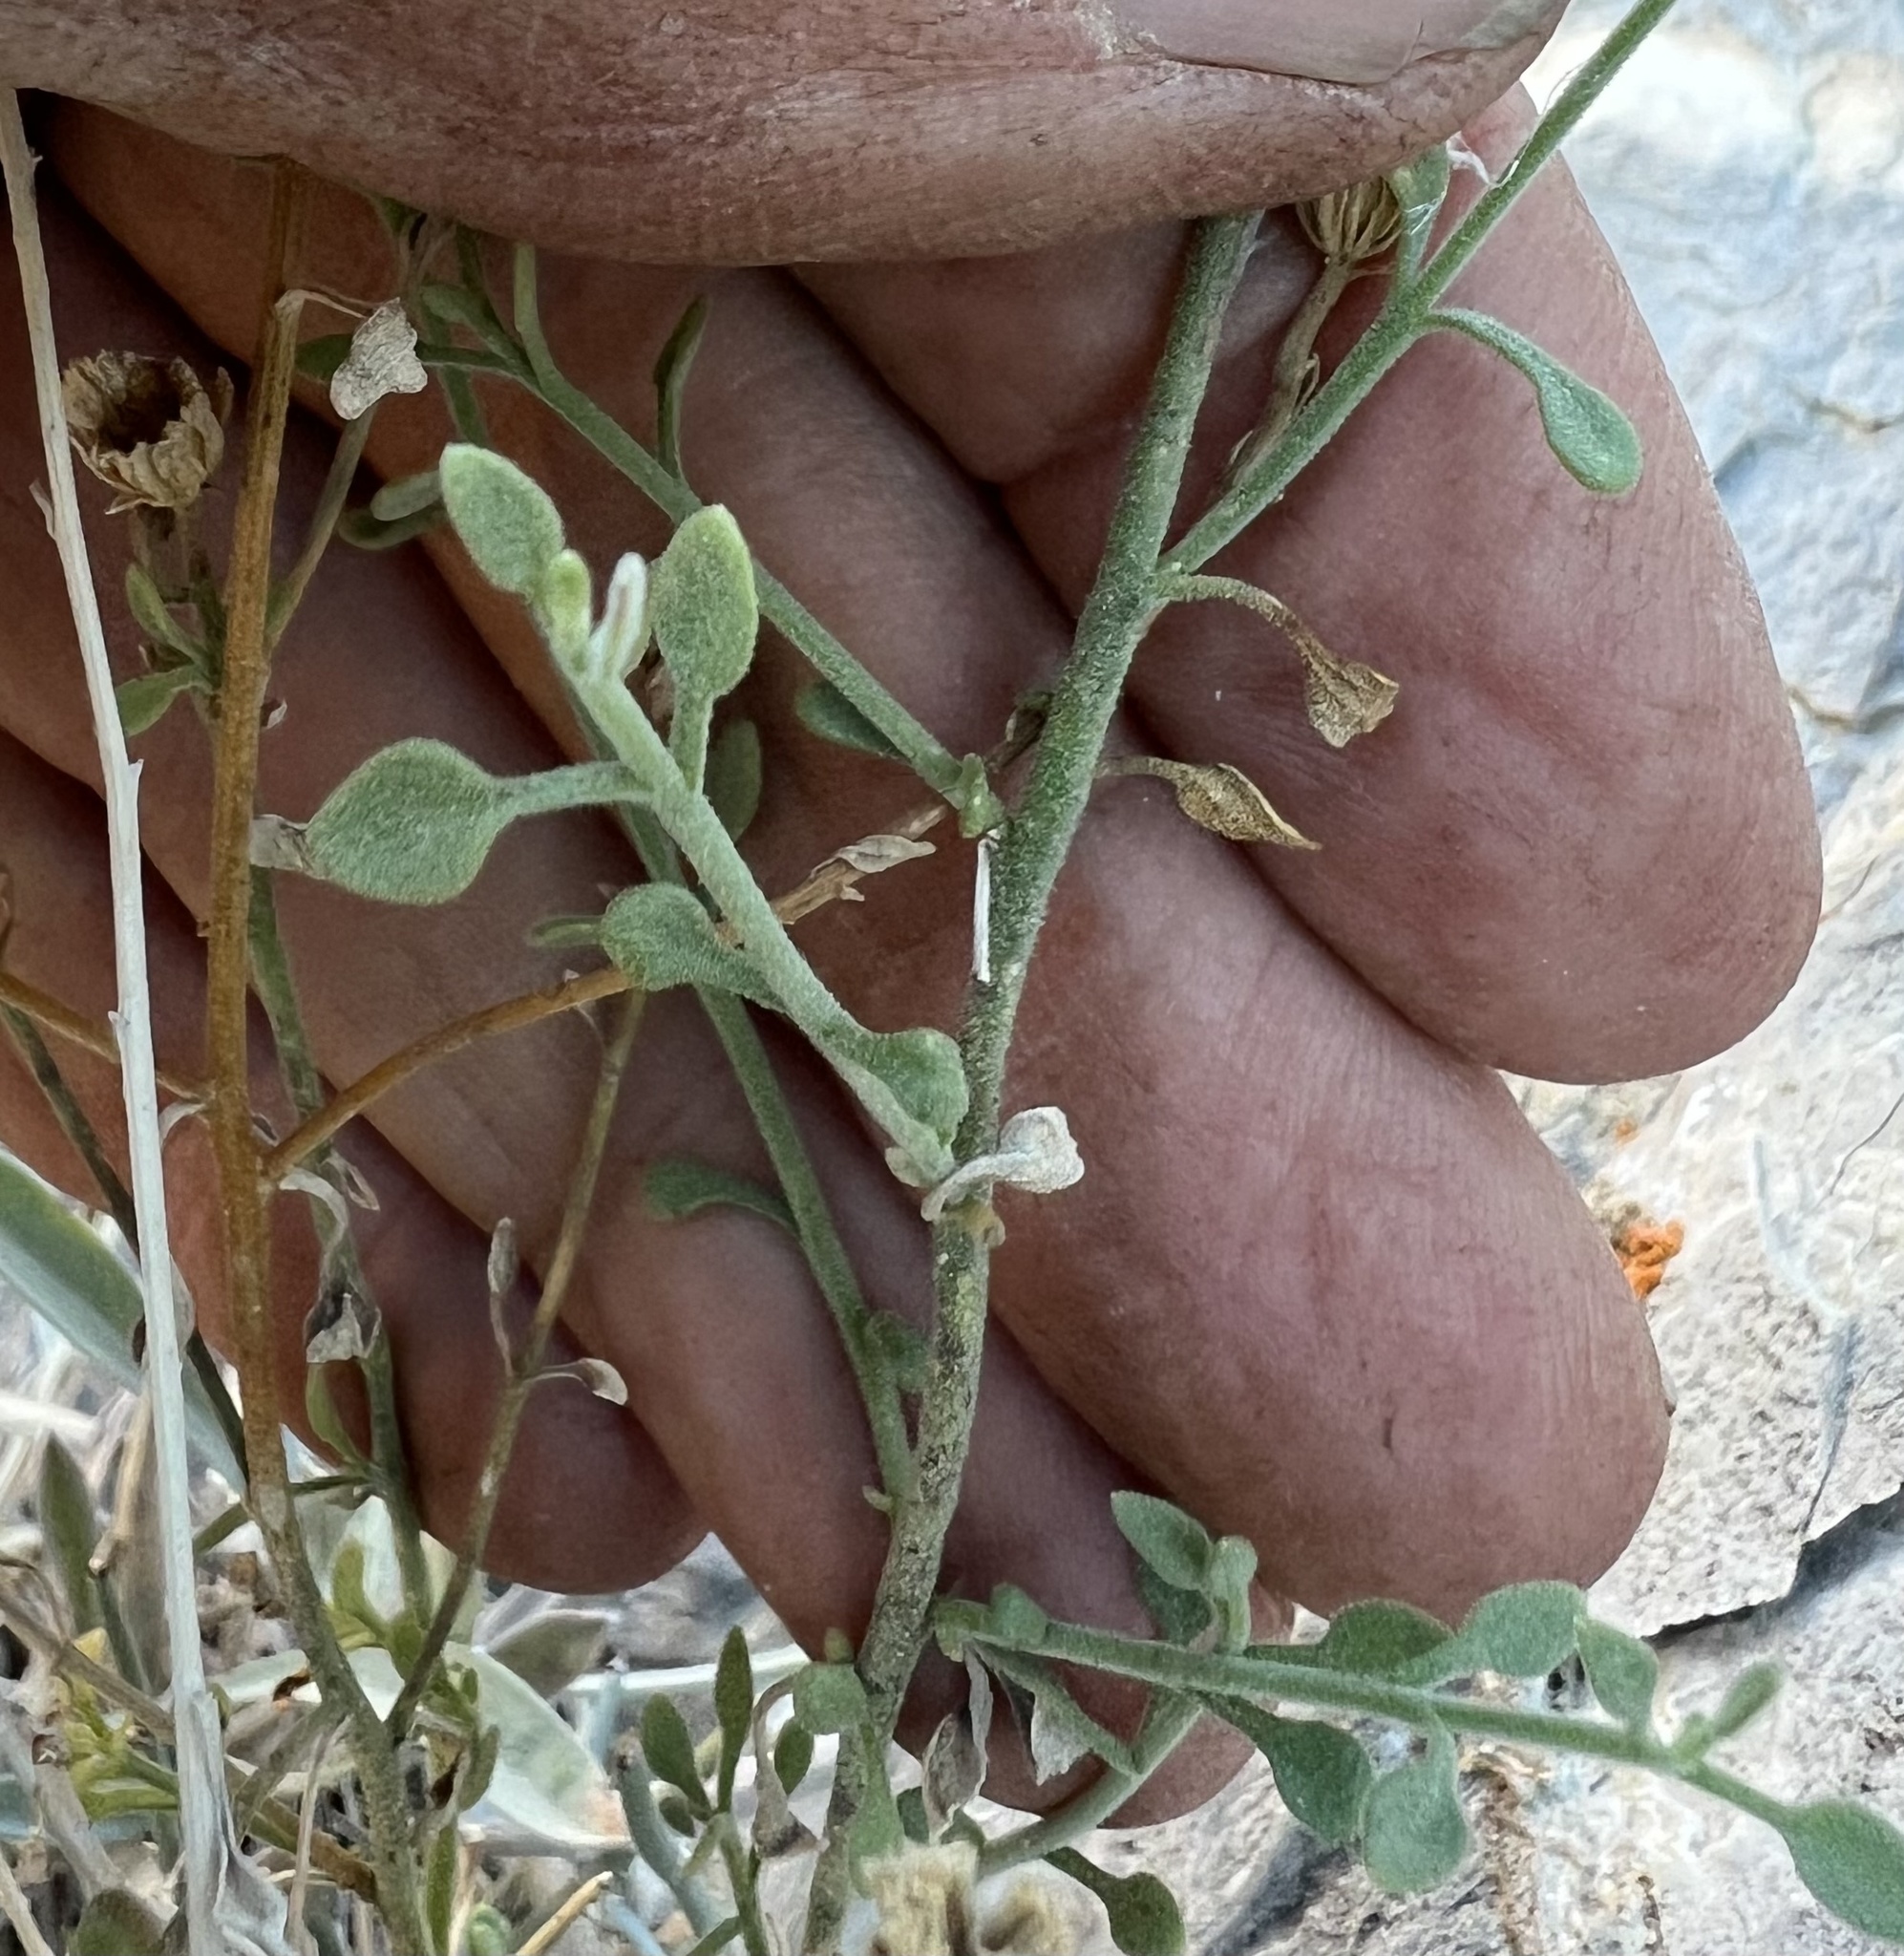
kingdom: Plantae
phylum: Tracheophyta
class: Magnoliopsida
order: Asterales
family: Asteraceae
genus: Laphamia
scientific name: Laphamia megalocephala
